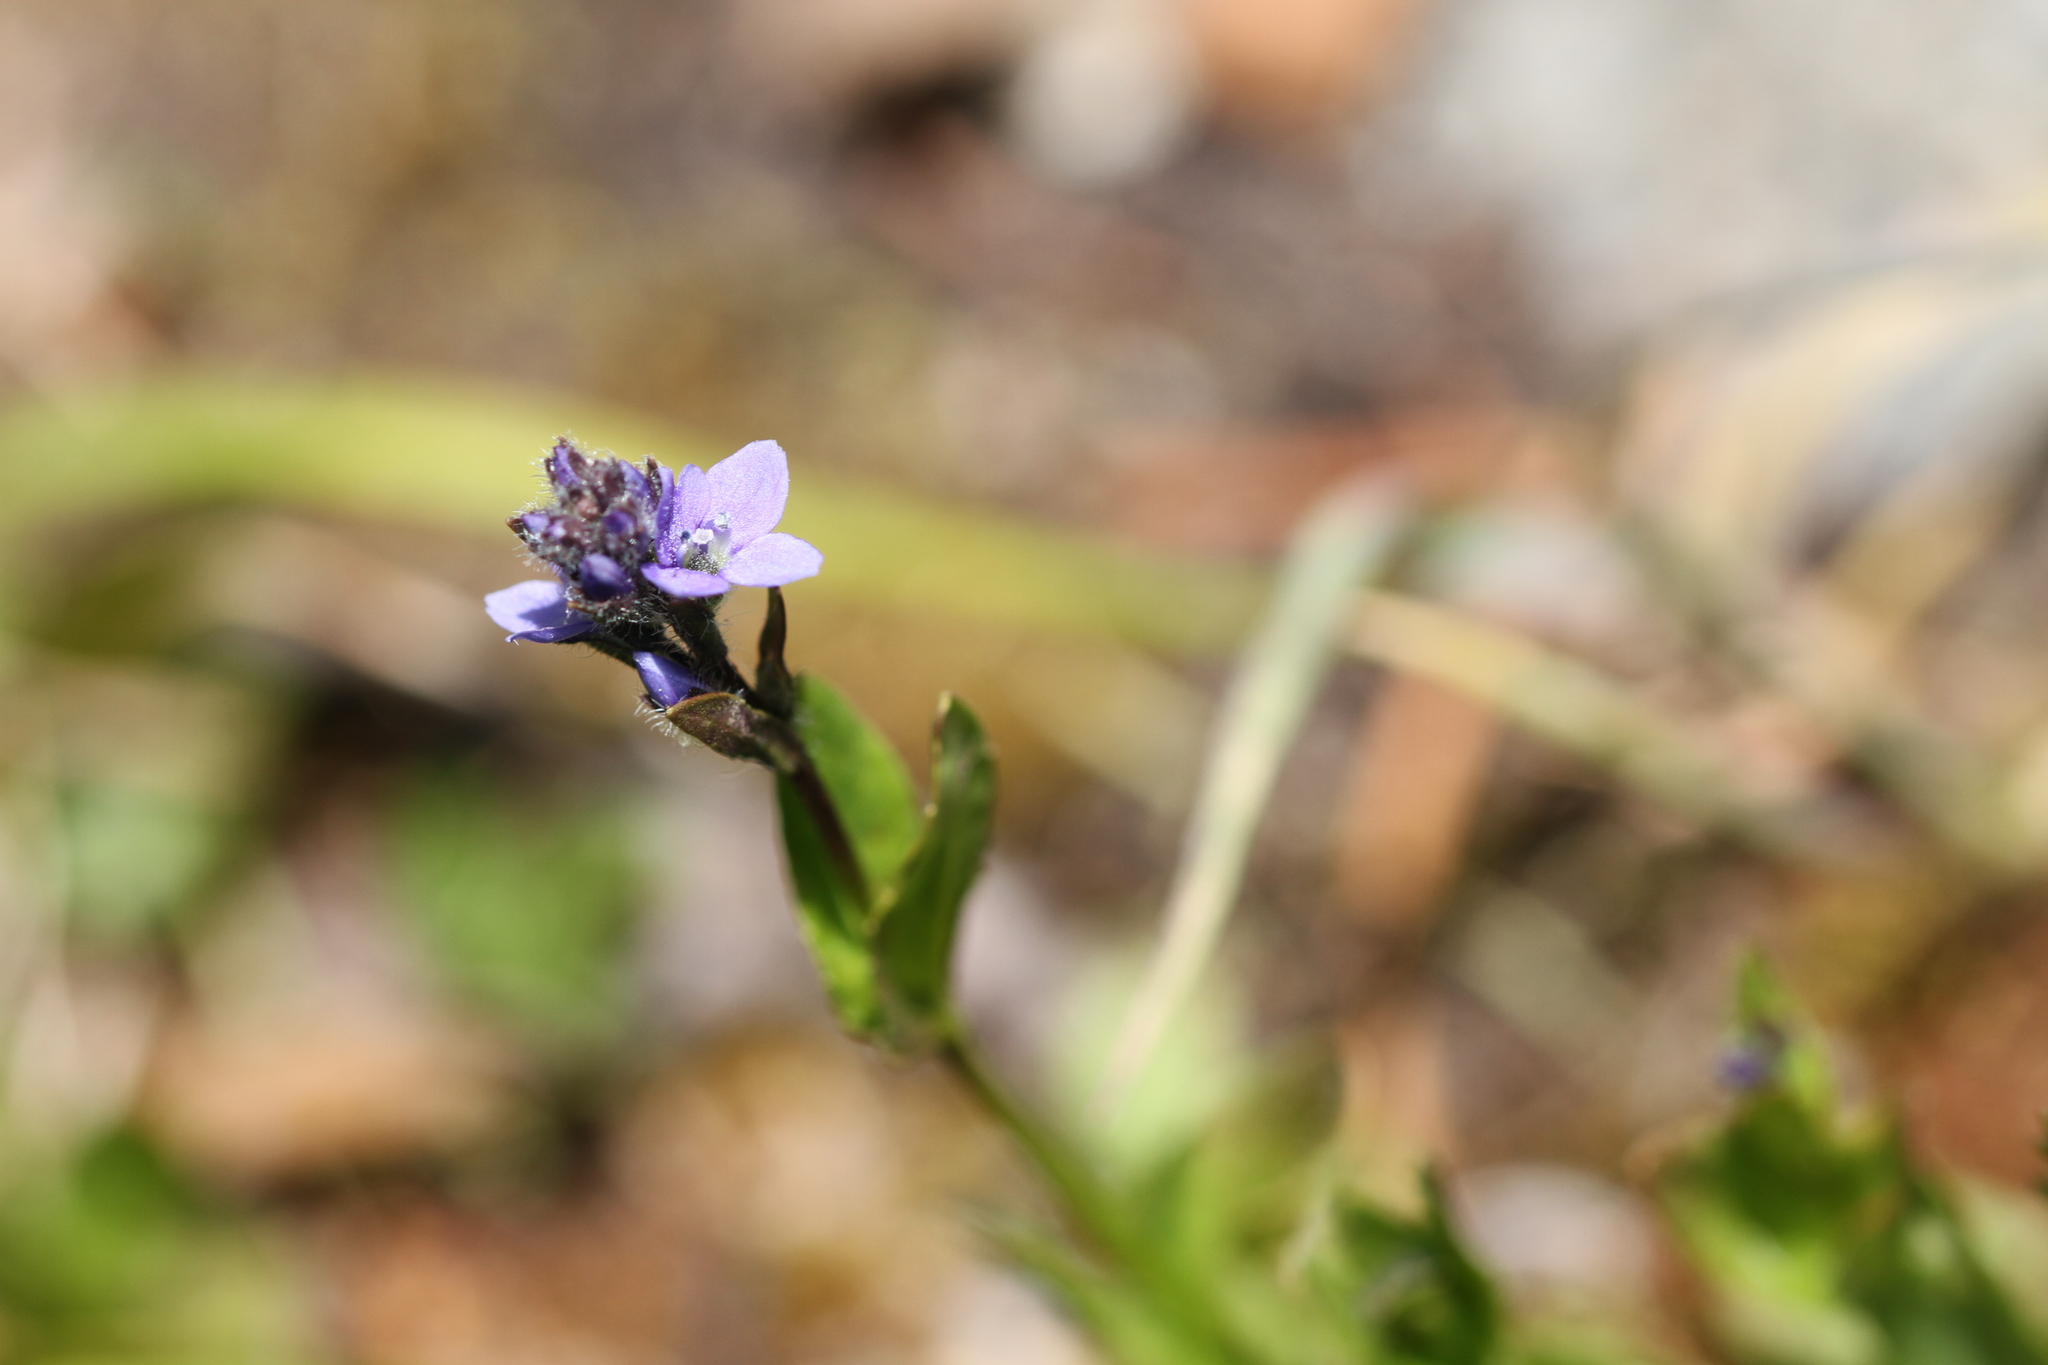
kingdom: Plantae
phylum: Tracheophyta
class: Magnoliopsida
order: Lamiales
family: Plantaginaceae
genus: Veronica
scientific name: Veronica wormskjoldii
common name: American alpine speedwell
